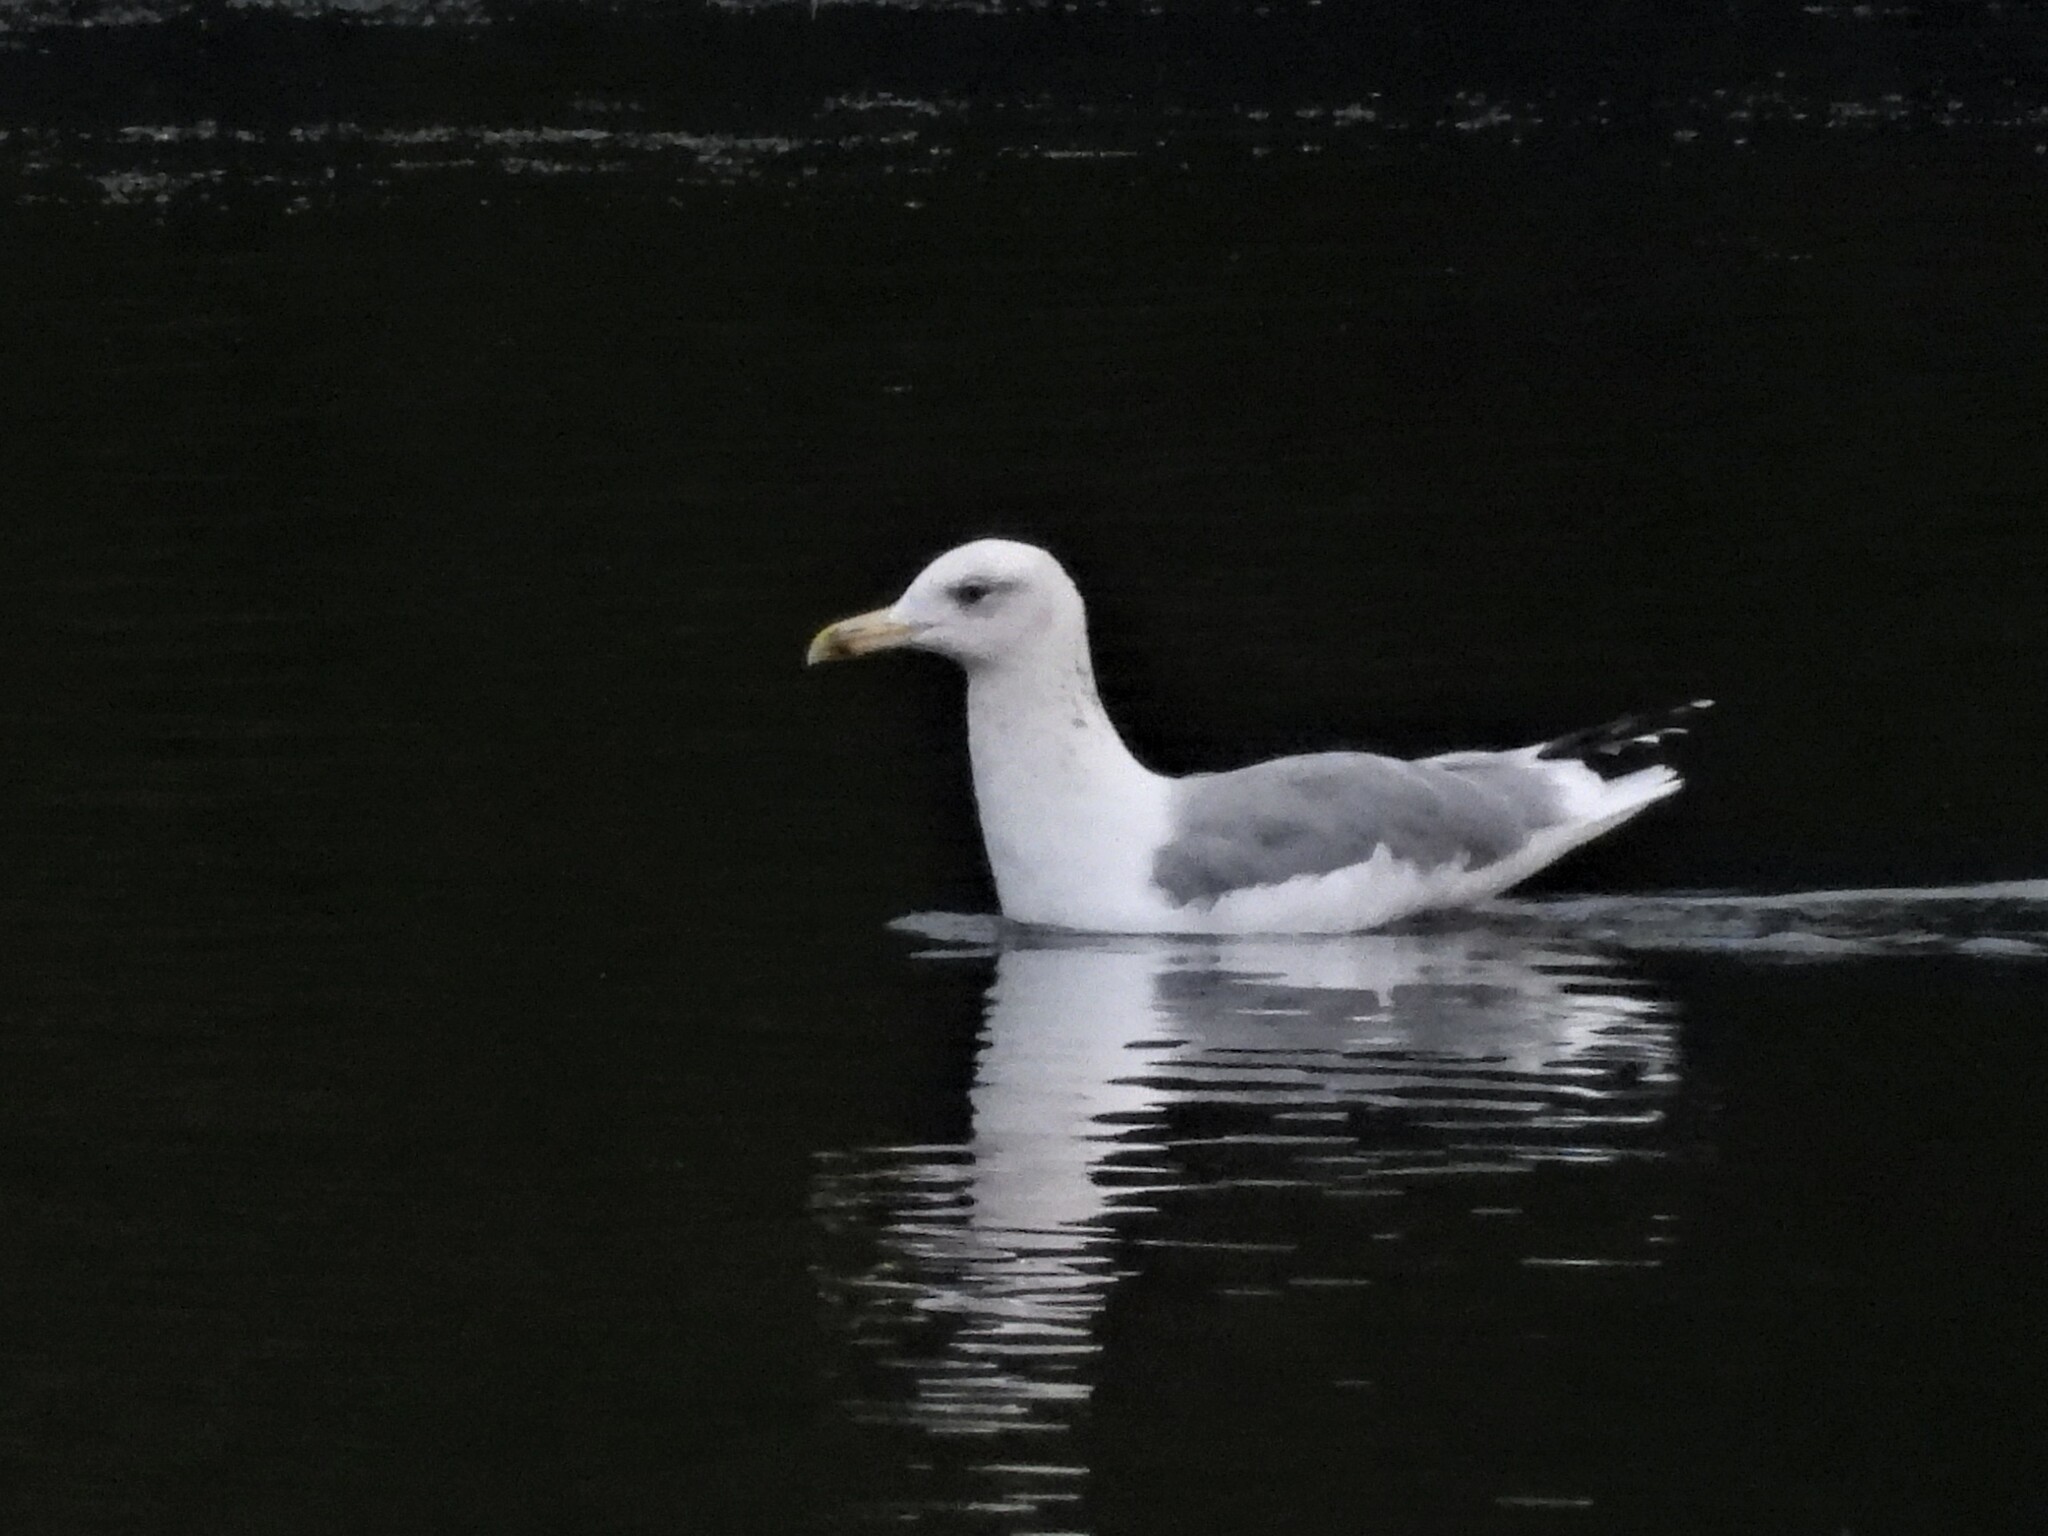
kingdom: Animalia
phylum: Chordata
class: Aves
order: Charadriiformes
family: Laridae
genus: Larus
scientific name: Larus cachinnans
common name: Caspian gull
